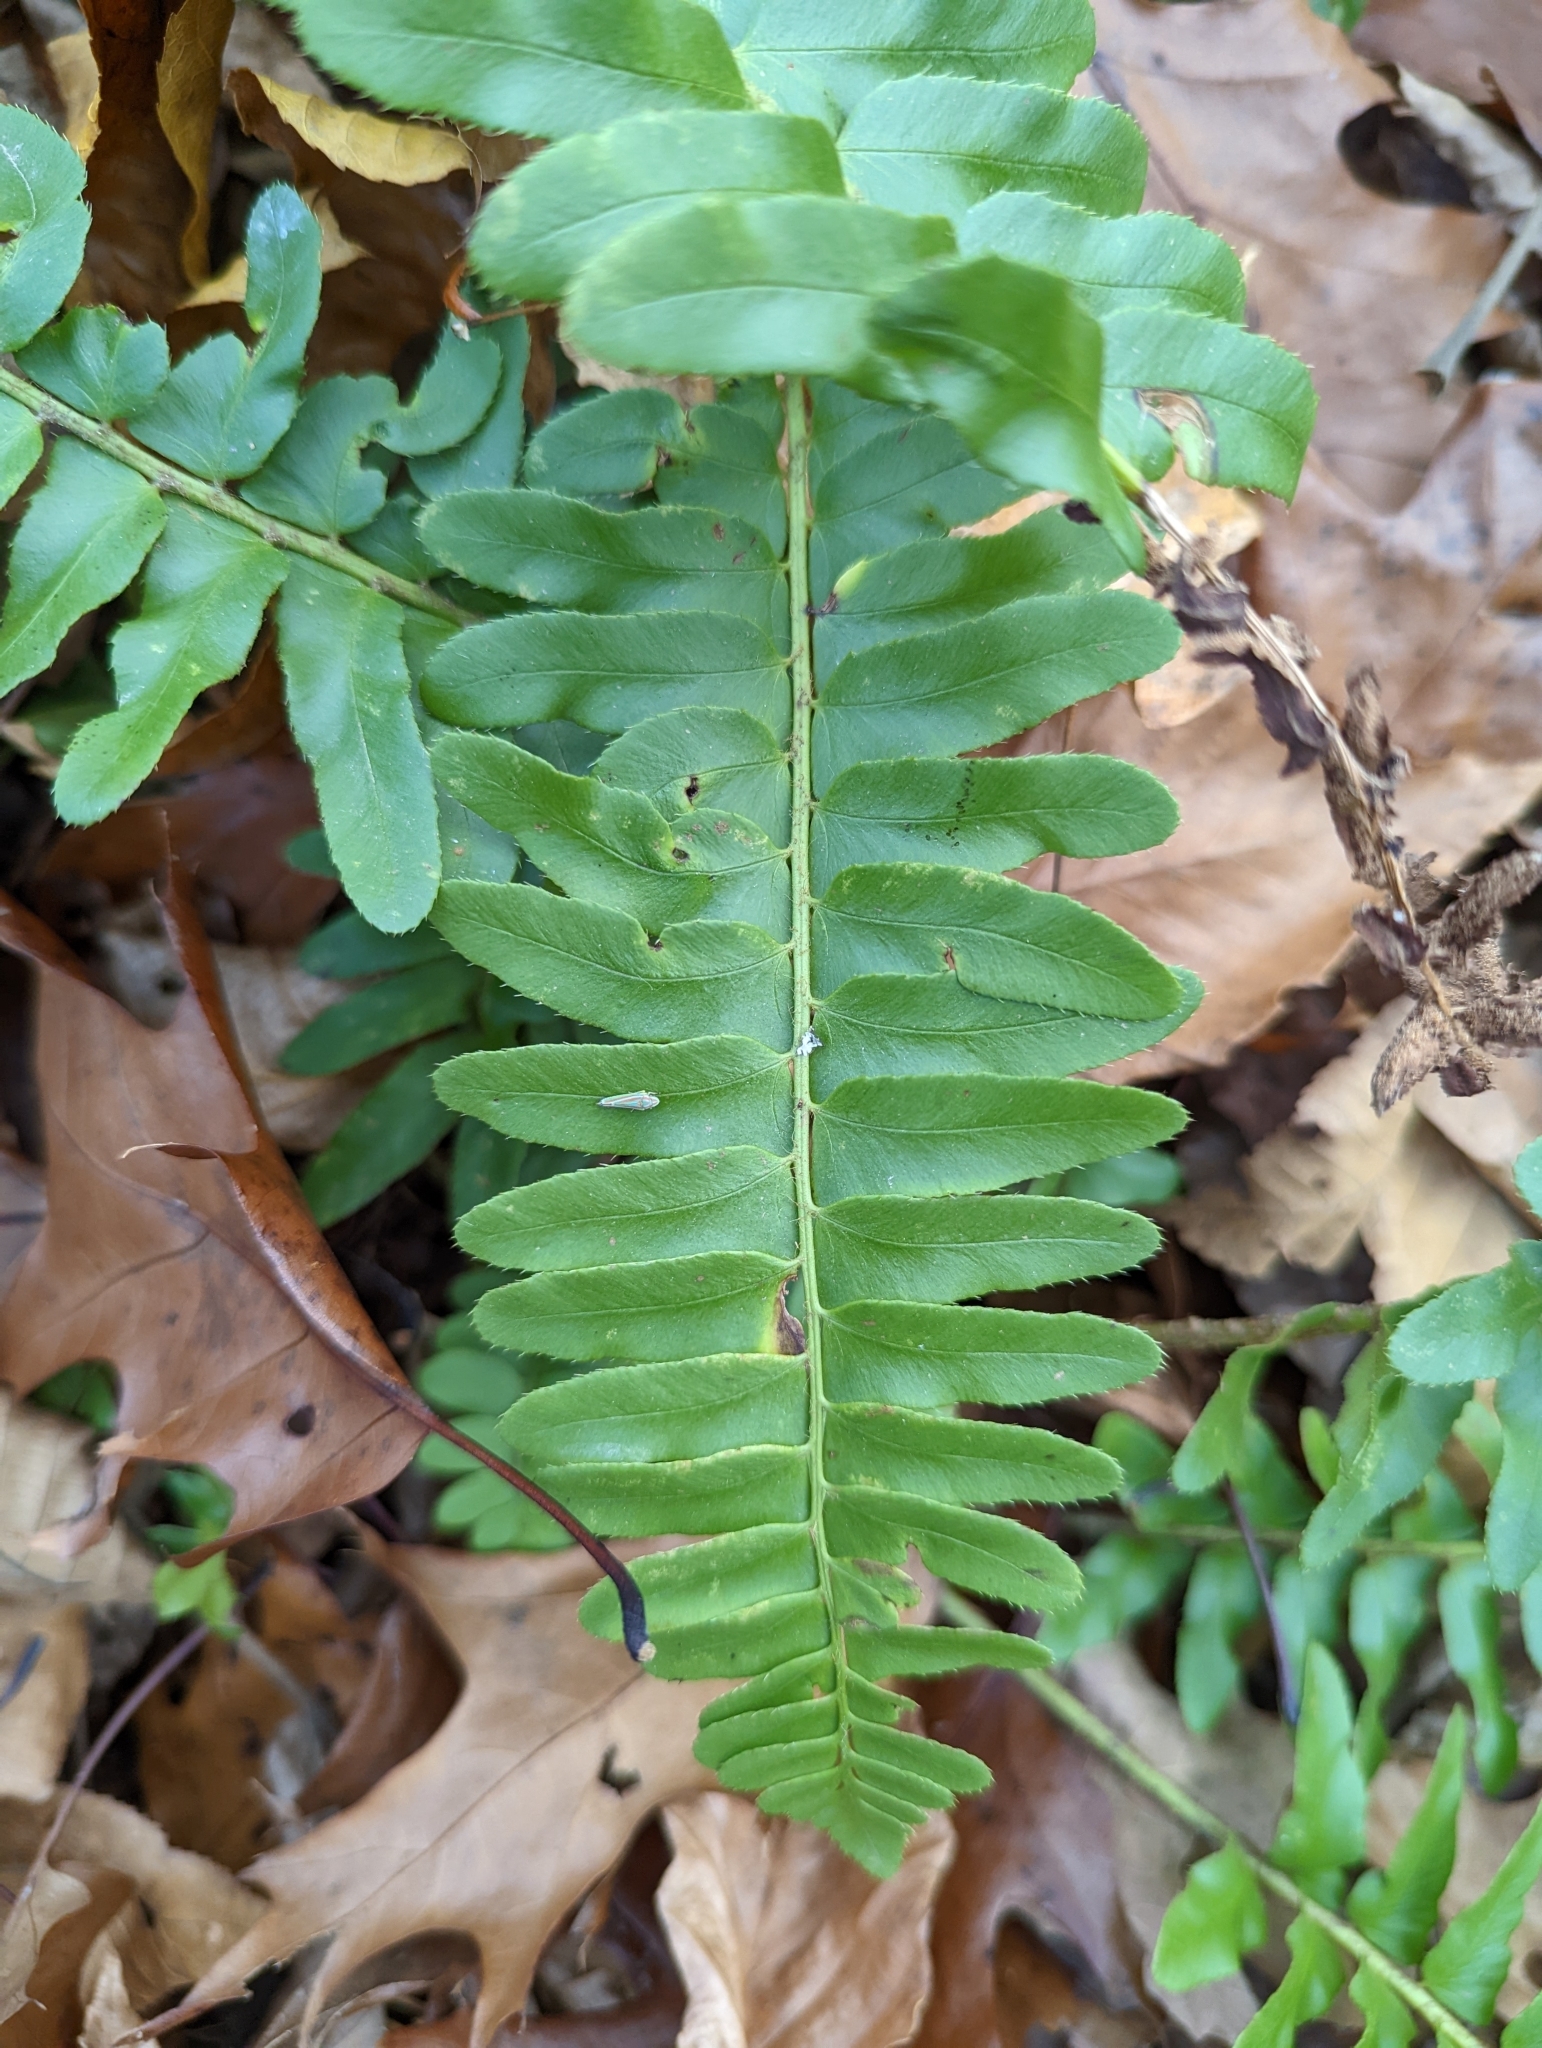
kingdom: Plantae
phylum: Tracheophyta
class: Polypodiopsida
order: Polypodiales
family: Dryopteridaceae
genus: Polystichum
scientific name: Polystichum acrostichoides
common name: Christmas fern
